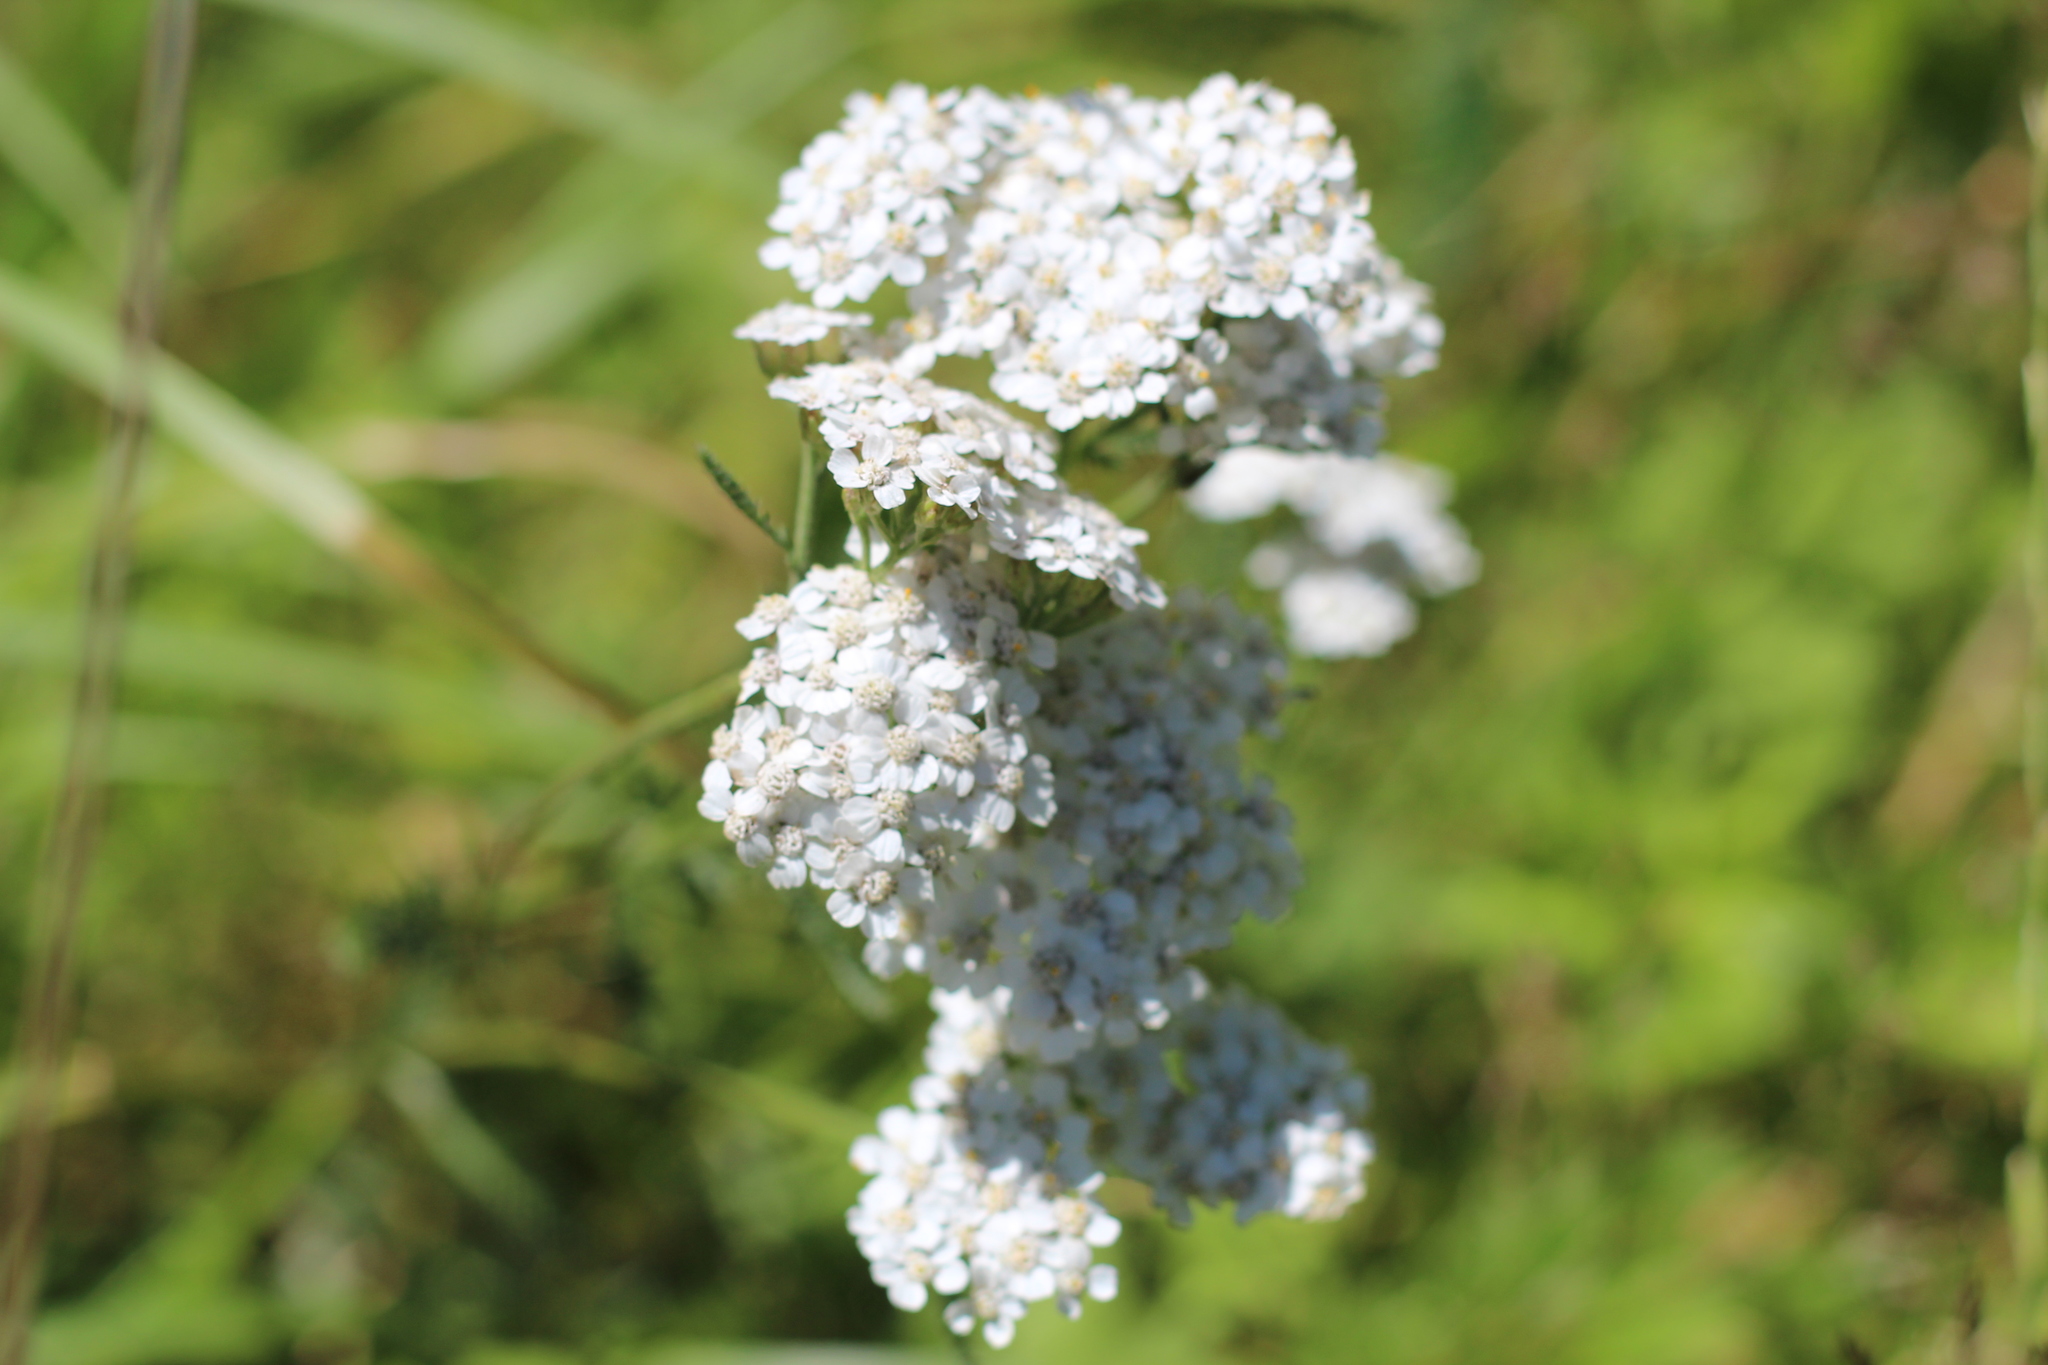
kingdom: Plantae
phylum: Tracheophyta
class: Magnoliopsida
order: Asterales
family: Asteraceae
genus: Achillea
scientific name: Achillea millefolium
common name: Yarrow
